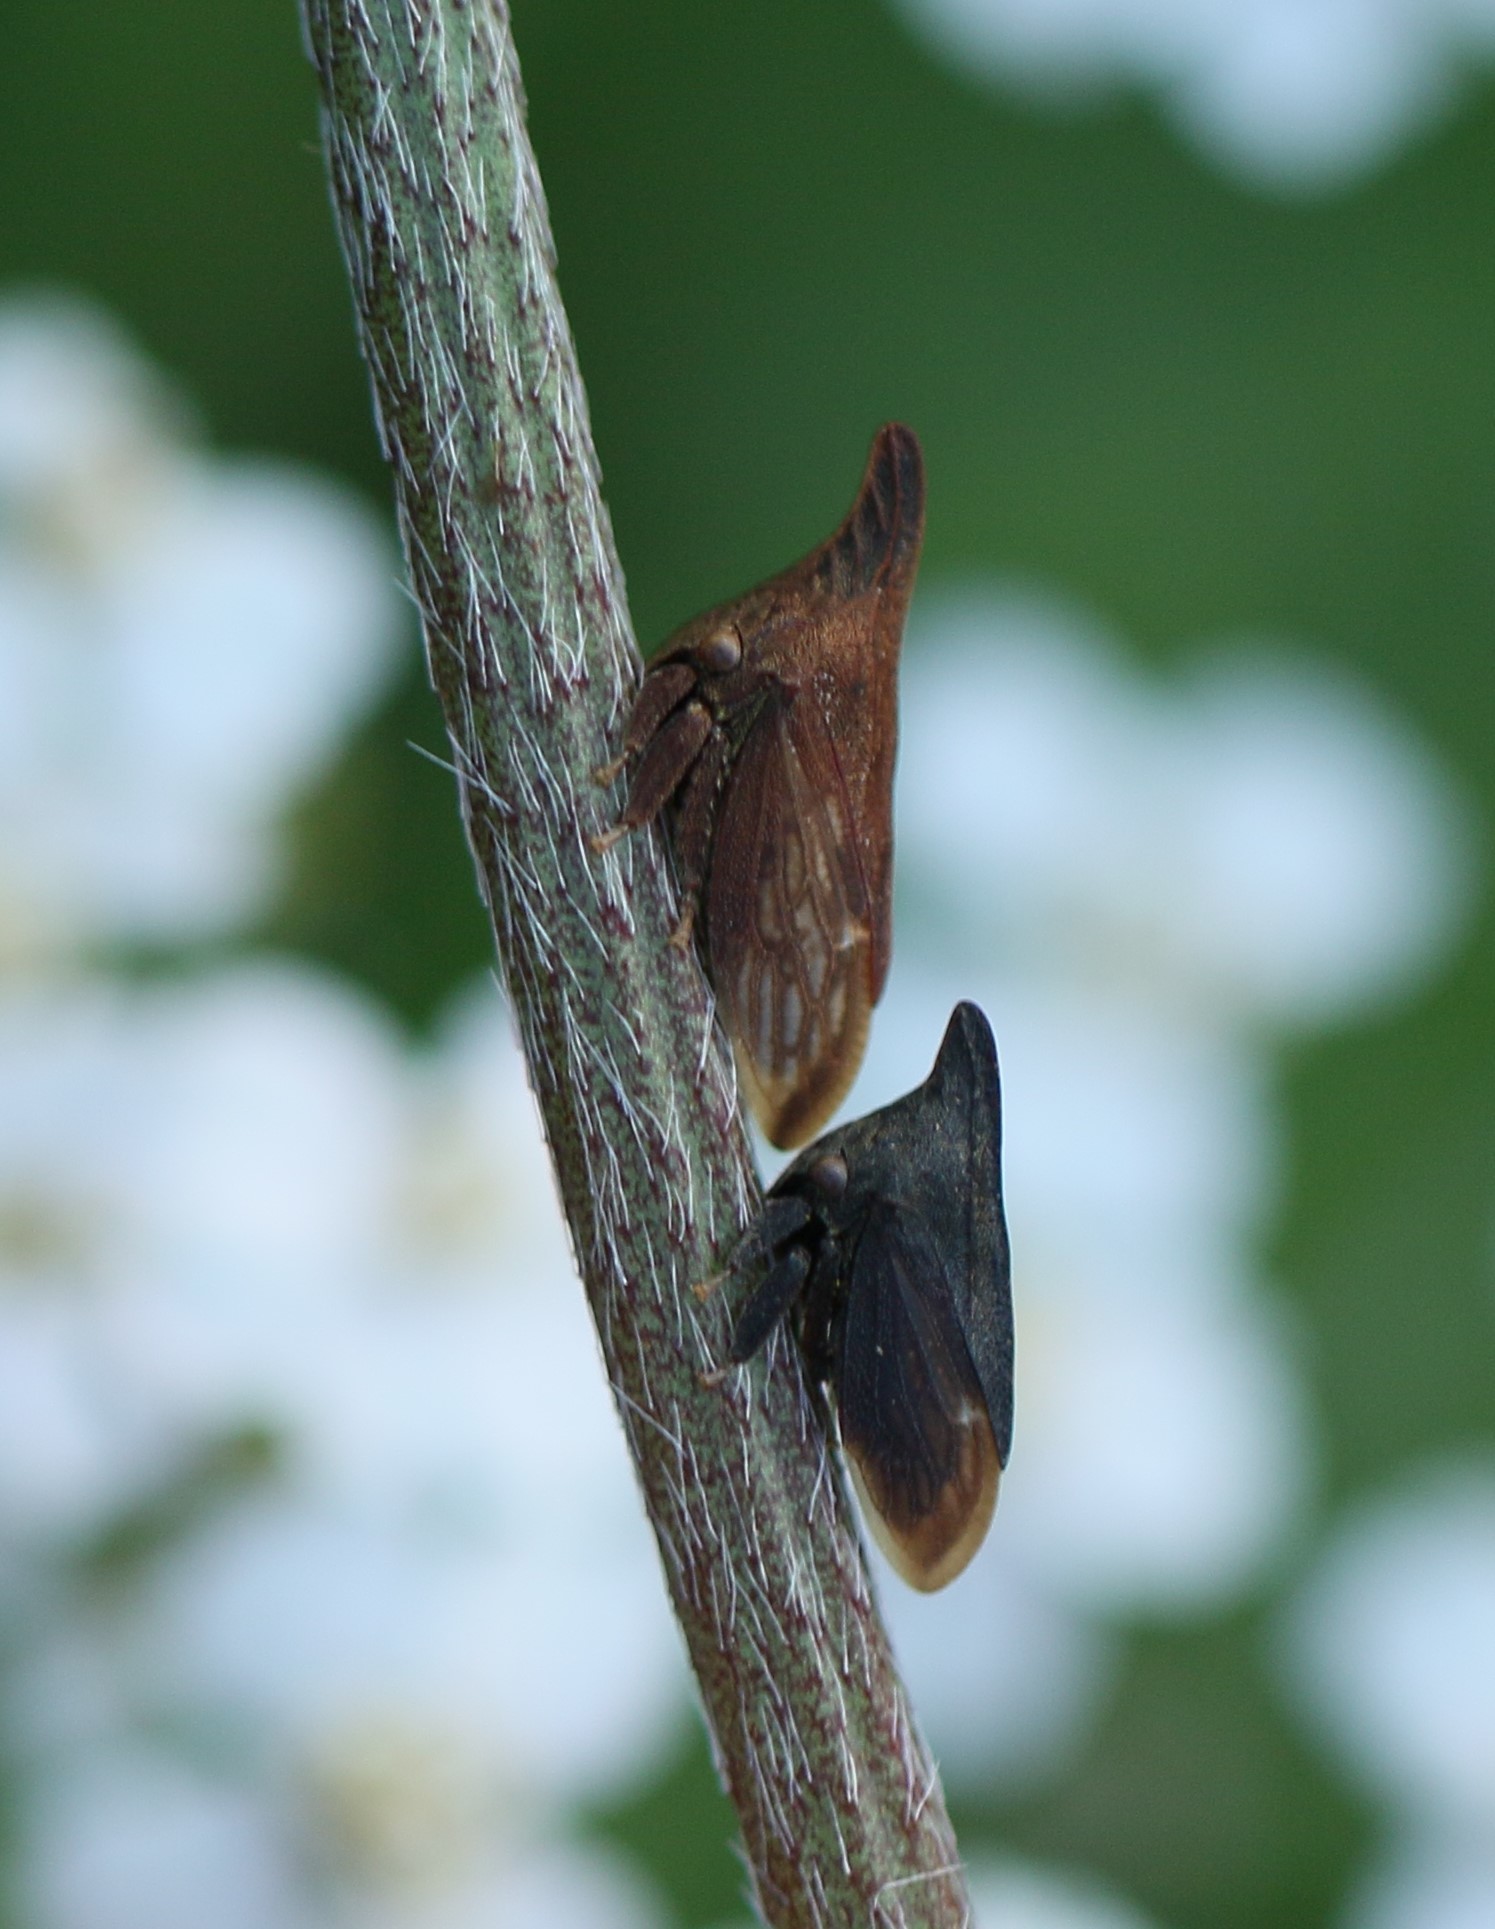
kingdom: Animalia
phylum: Arthropoda
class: Insecta
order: Hemiptera
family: Membracidae
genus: Enchenopa
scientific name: Enchenopa latipes
